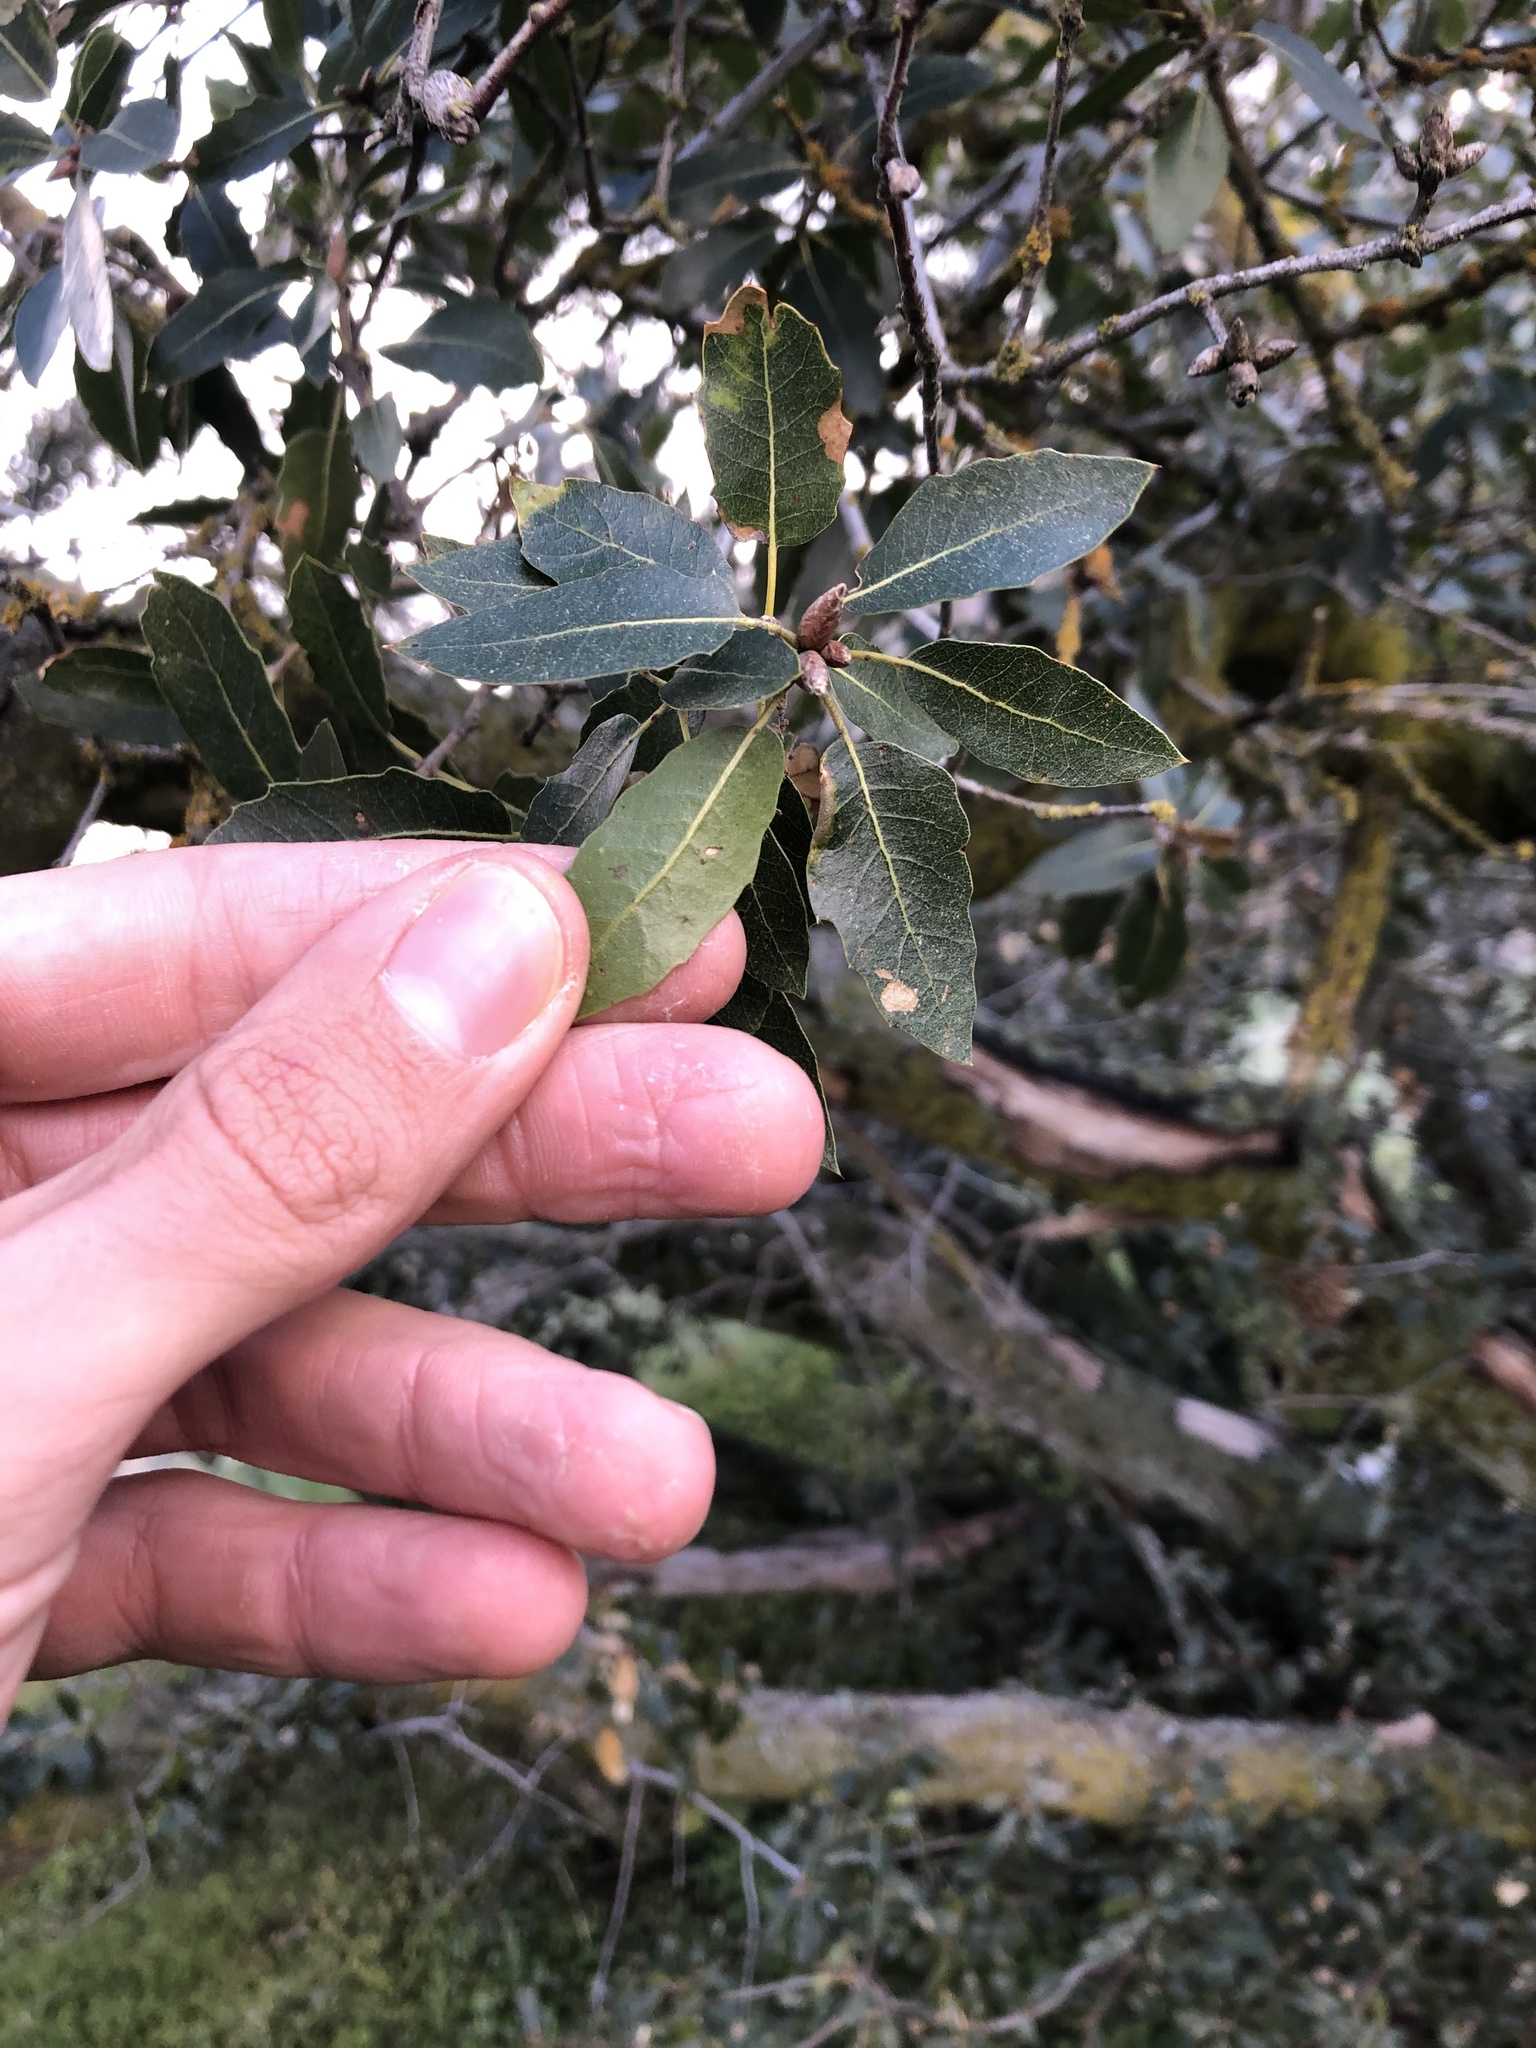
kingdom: Plantae
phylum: Tracheophyta
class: Magnoliopsida
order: Fagales
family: Fagaceae
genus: Quercus
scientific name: Quercus wislizeni
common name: Interior live oak
